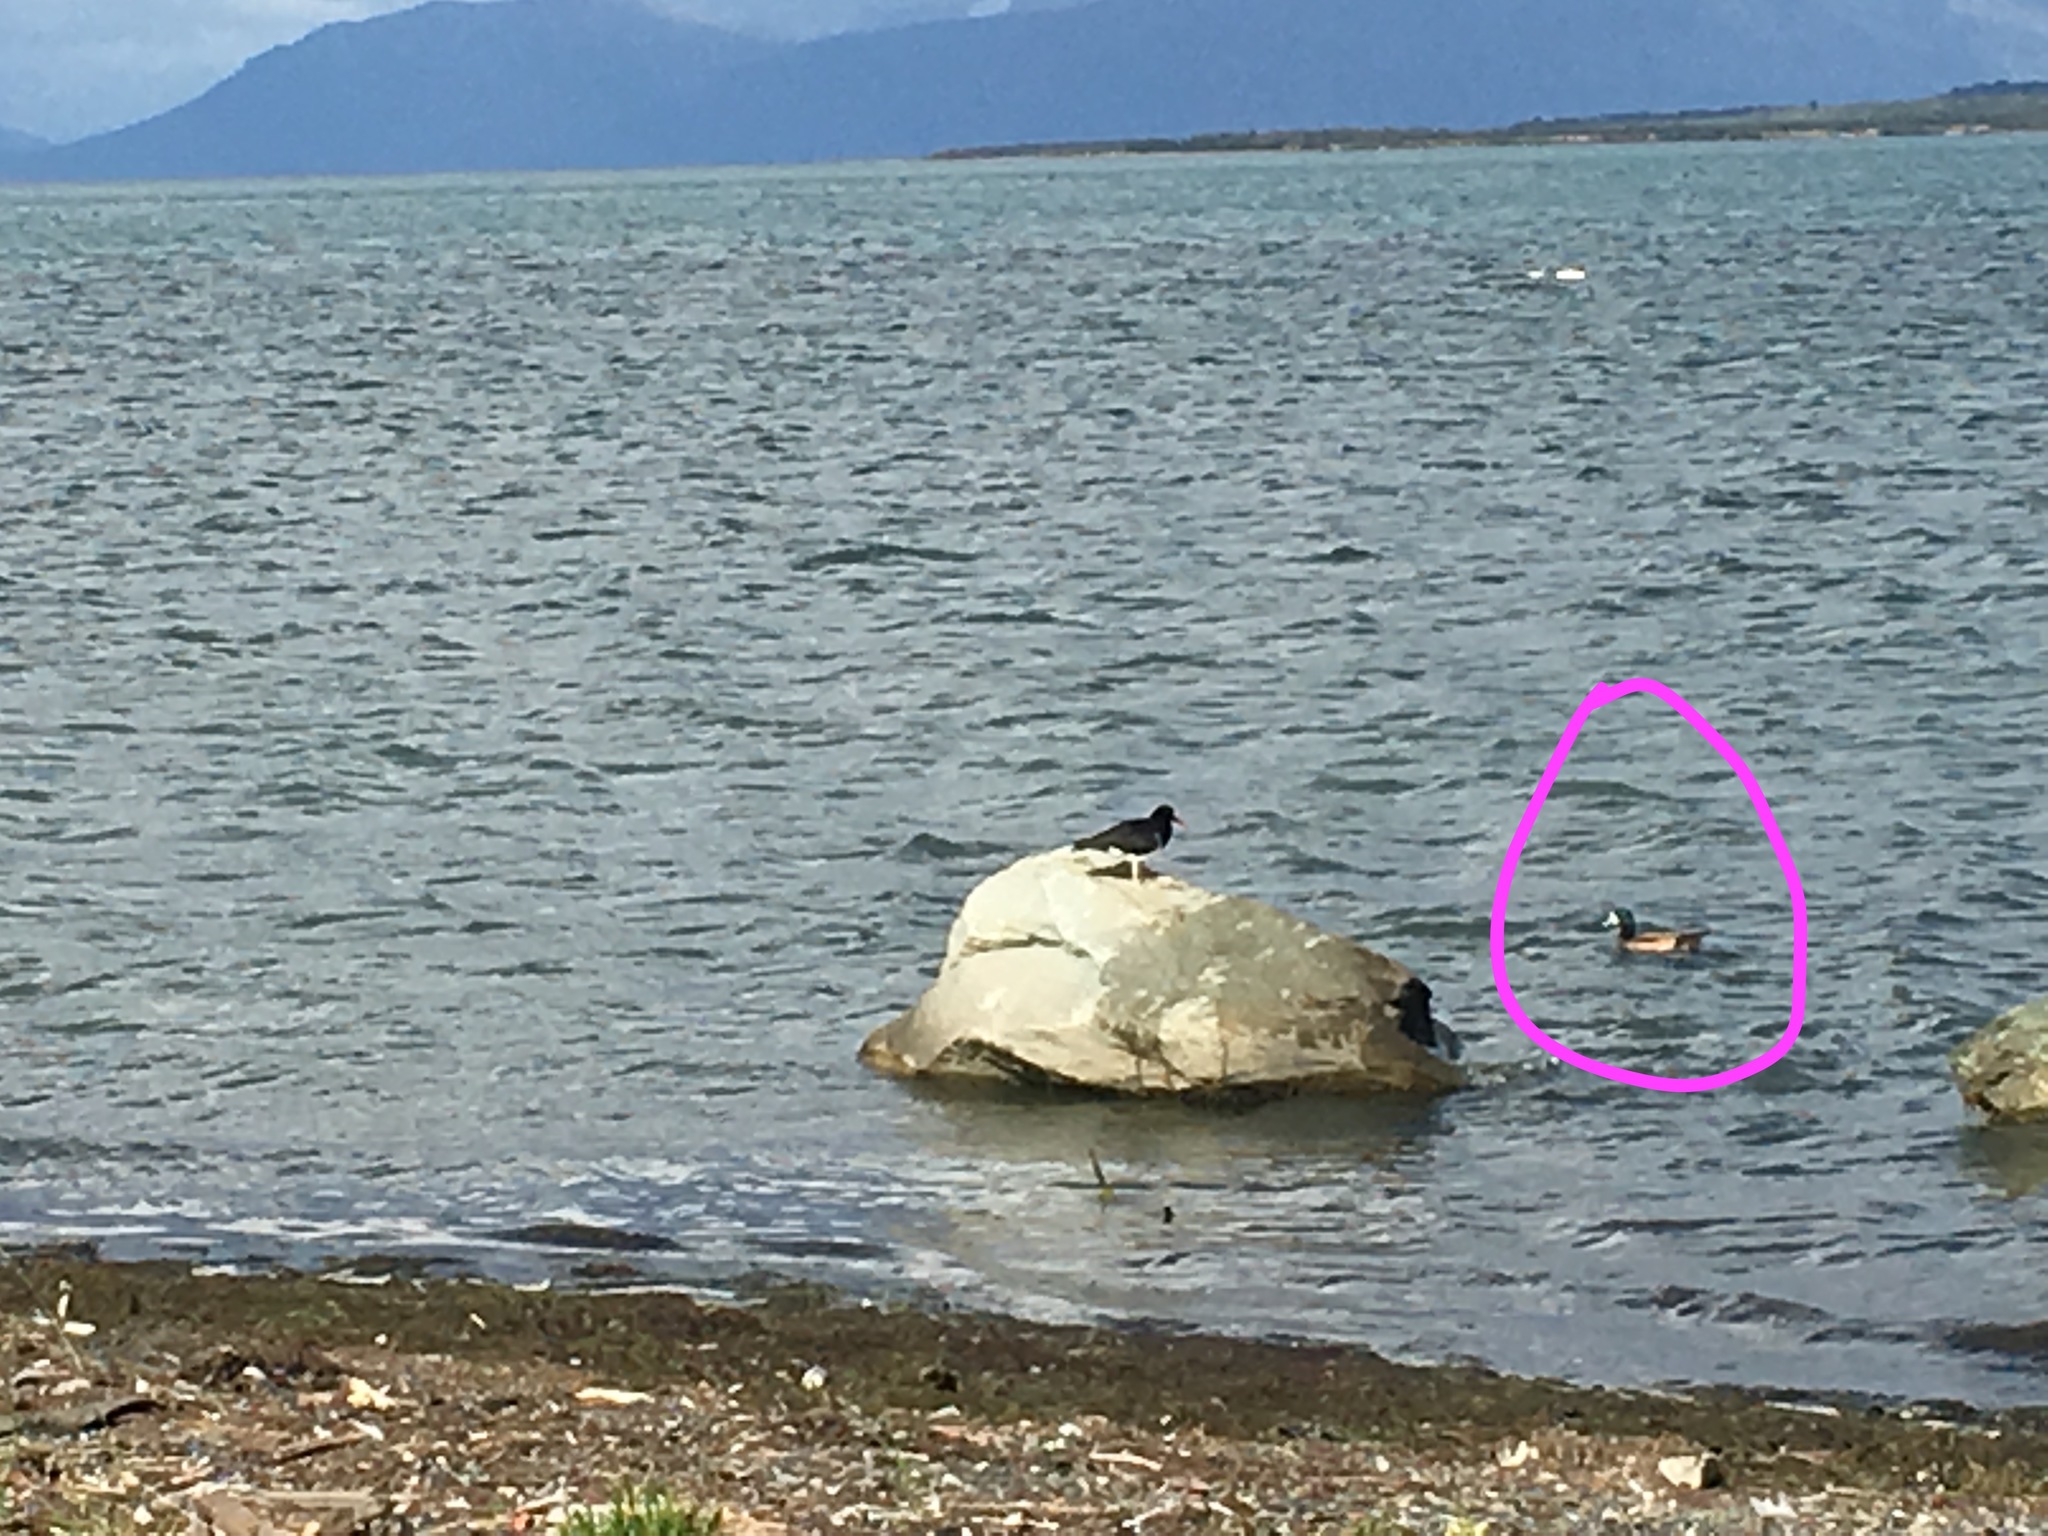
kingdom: Animalia
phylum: Chordata
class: Aves
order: Anseriformes
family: Anatidae
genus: Mareca
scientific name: Mareca sibilatrix
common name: Chiloe wigeon
